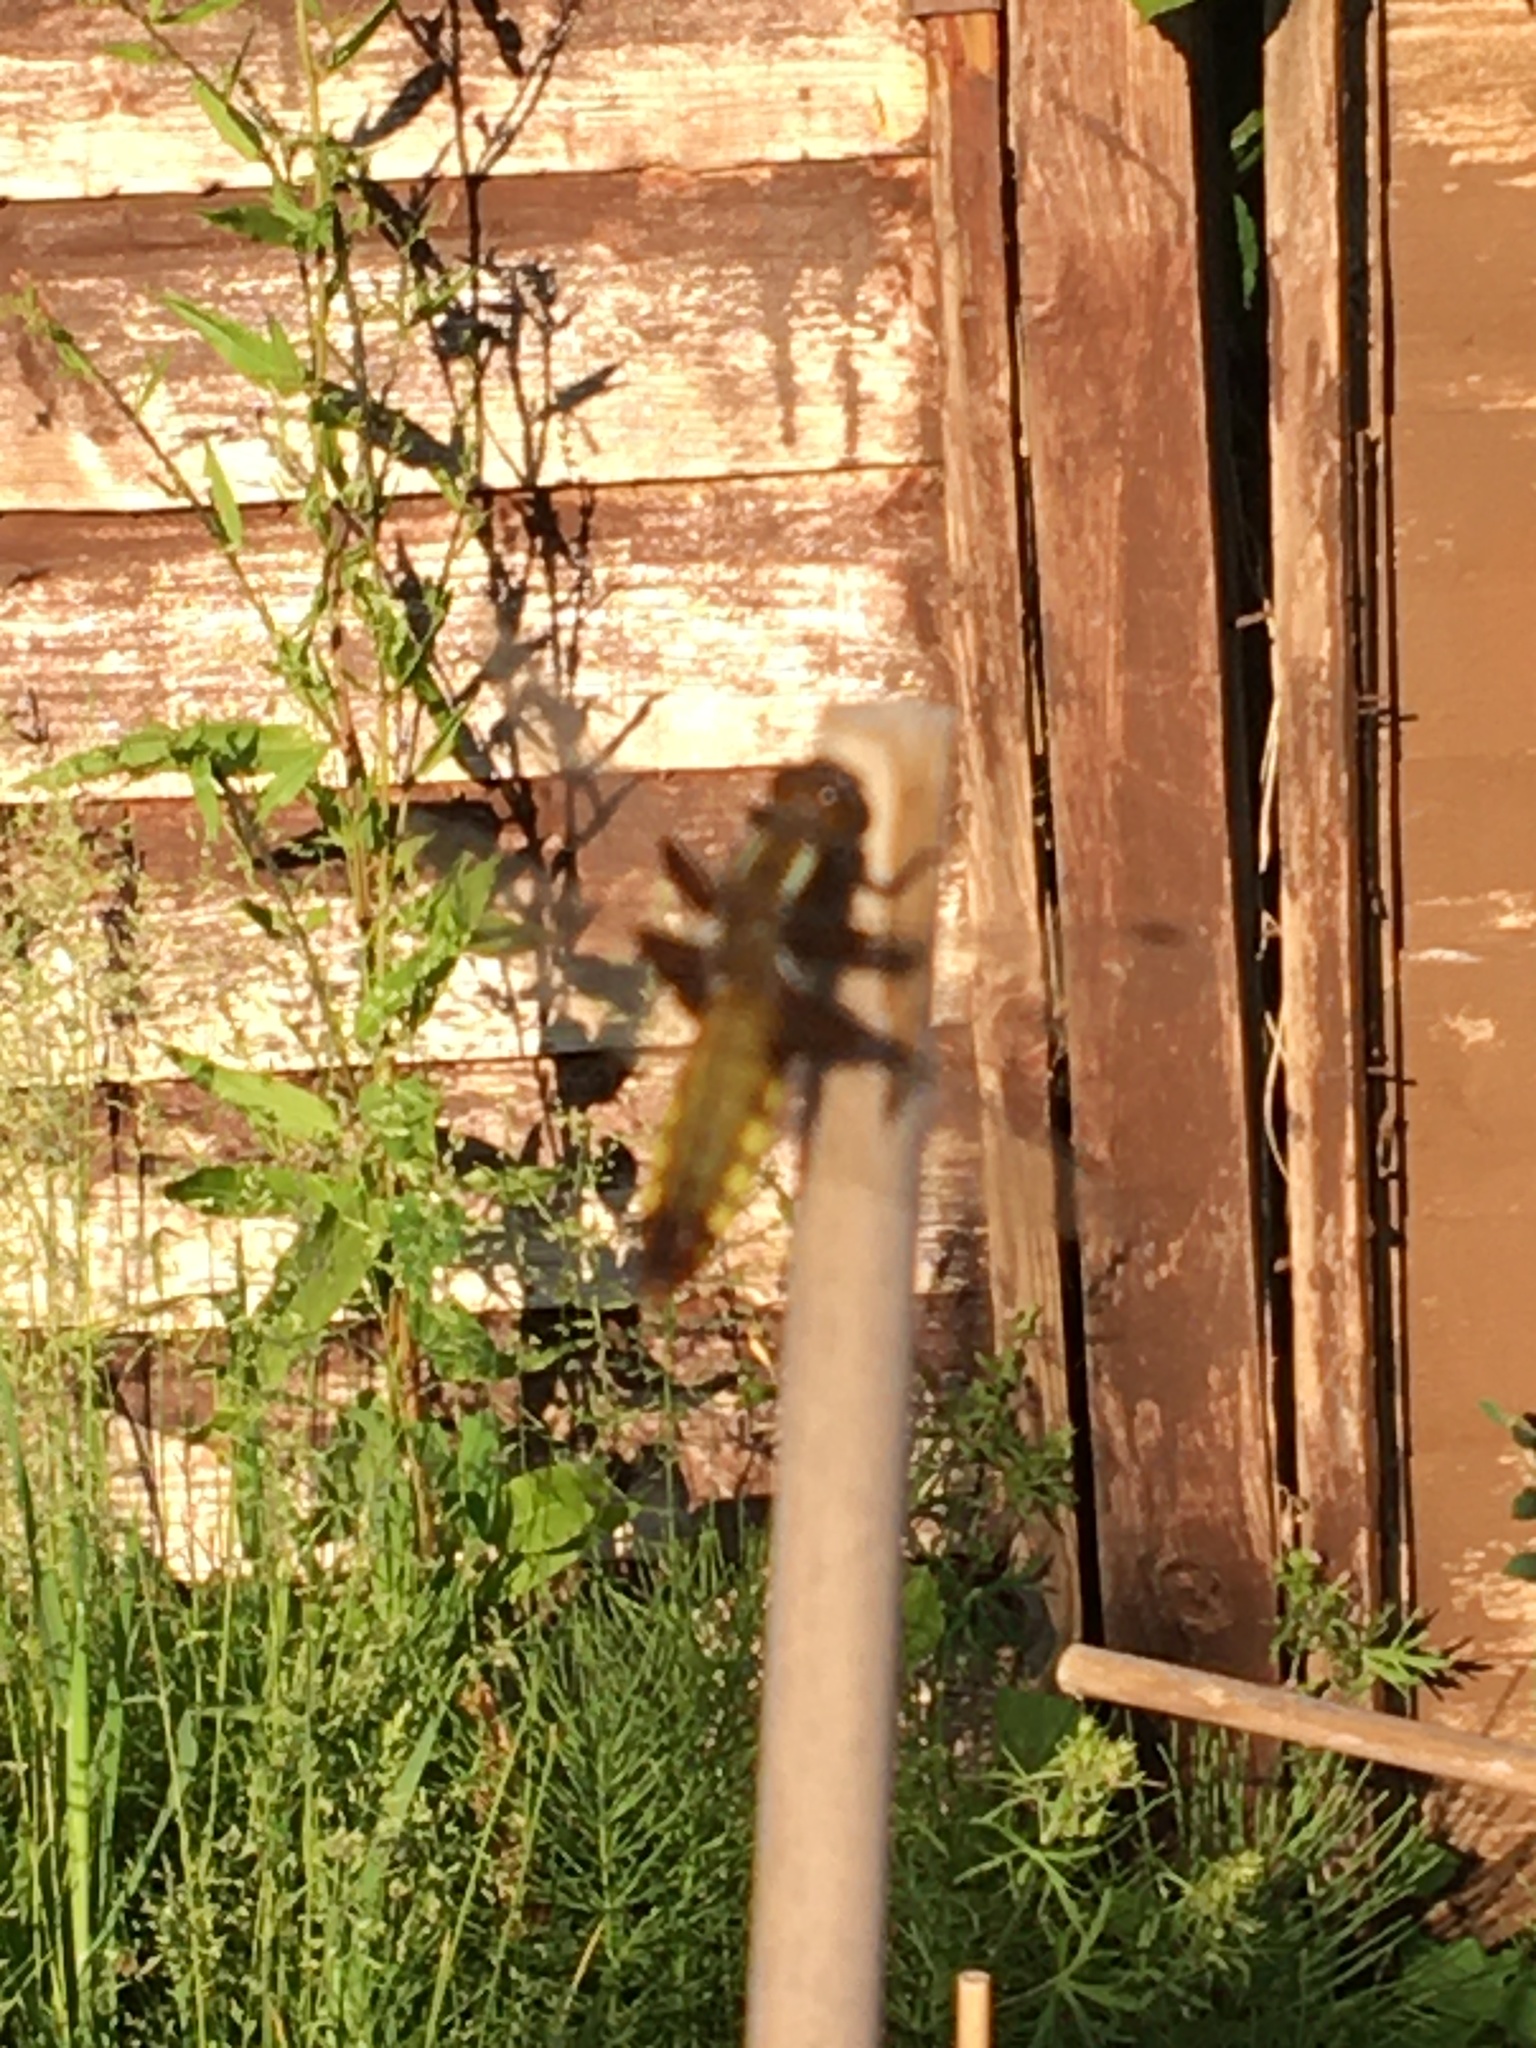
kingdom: Animalia
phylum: Arthropoda
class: Insecta
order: Odonata
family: Libellulidae
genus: Libellula
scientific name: Libellula depressa
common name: Broad-bodied chaser
